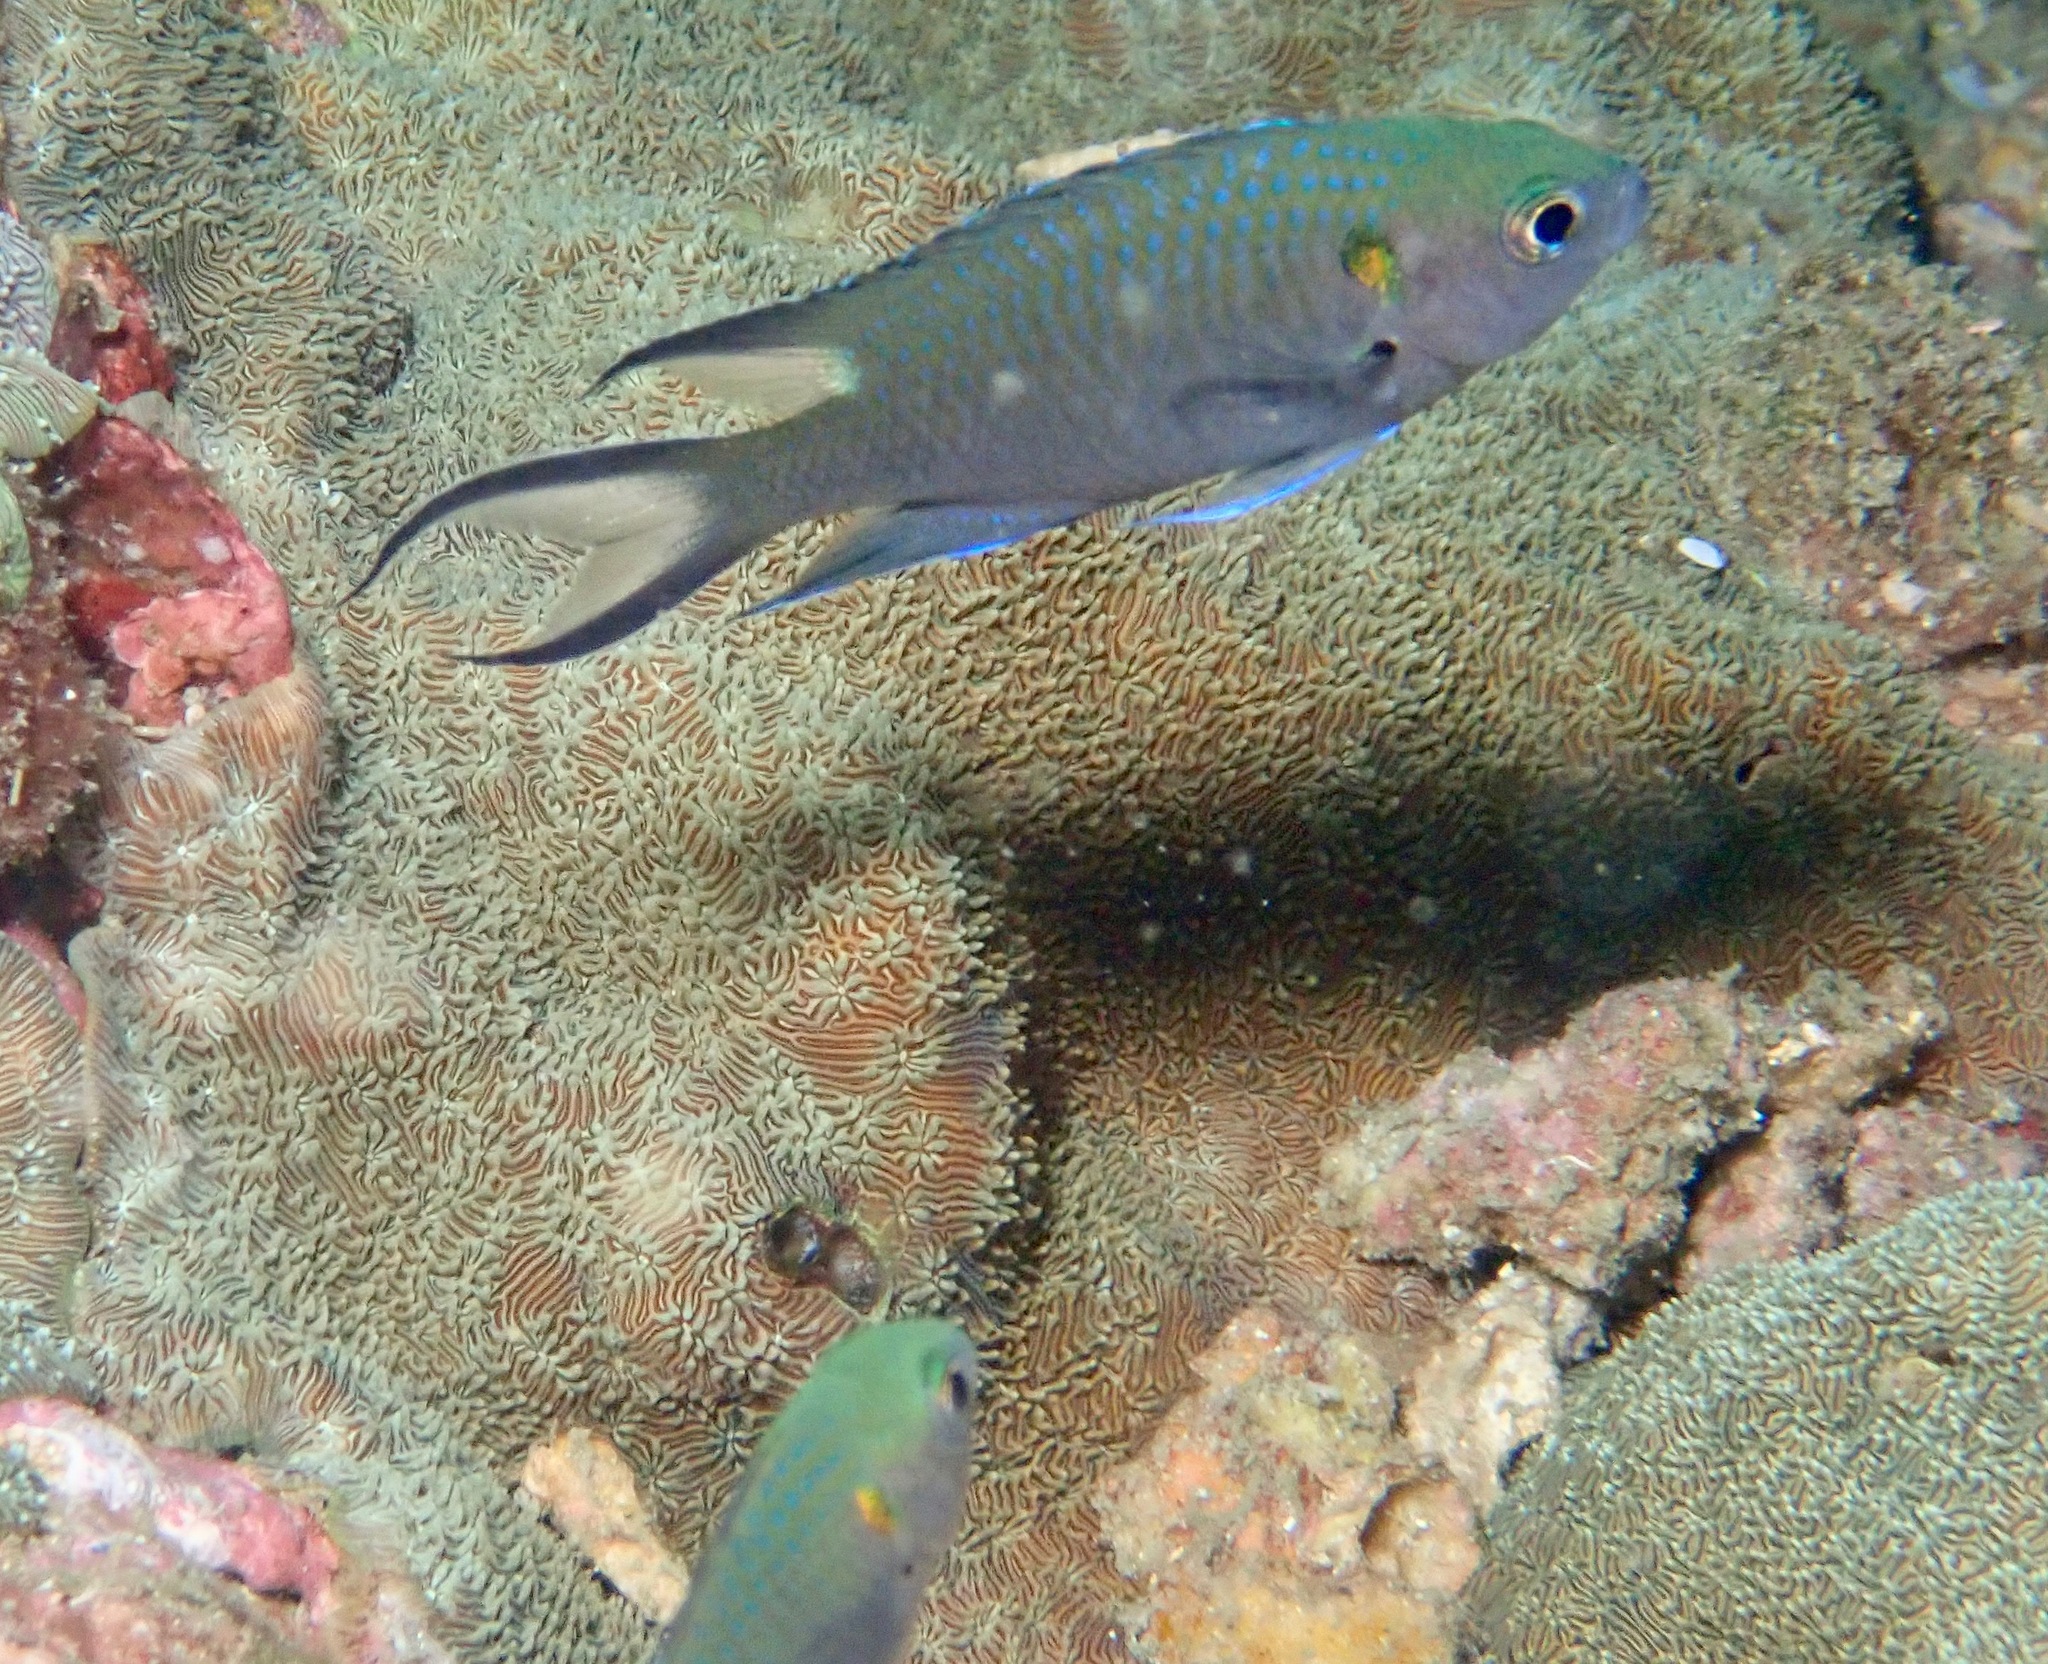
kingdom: Animalia
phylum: Chordata
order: Perciformes
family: Pomacentridae
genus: Neopomacentrus
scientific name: Neopomacentrus anabatoides
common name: Silver demoiselle
